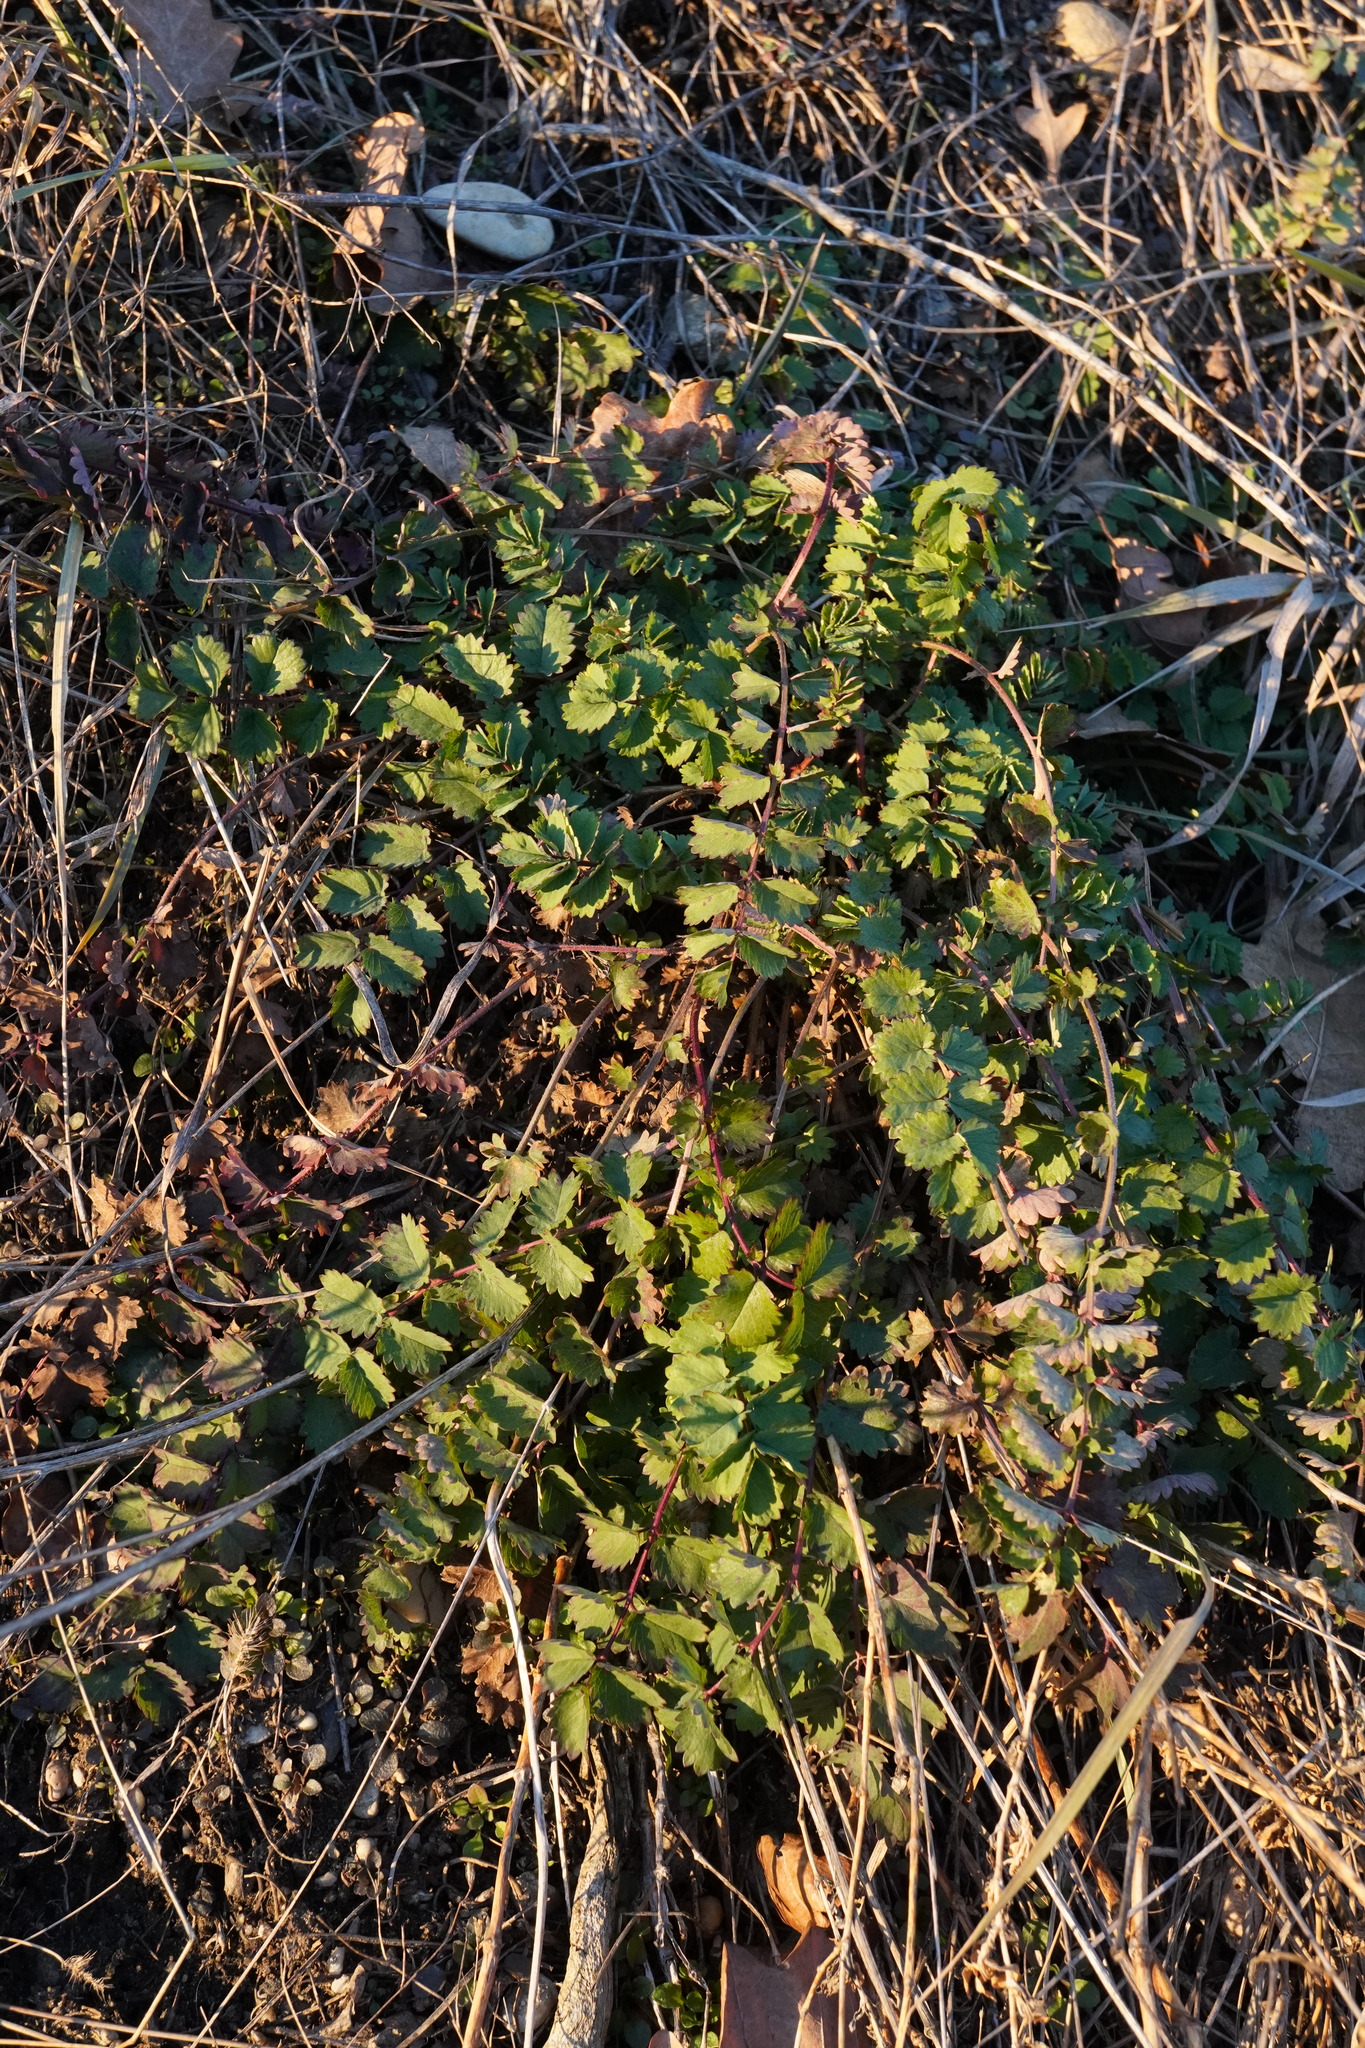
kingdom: Plantae
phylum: Tracheophyta
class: Magnoliopsida
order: Rosales
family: Rosaceae
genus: Poterium
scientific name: Poterium sanguisorba
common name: Salad burnet
